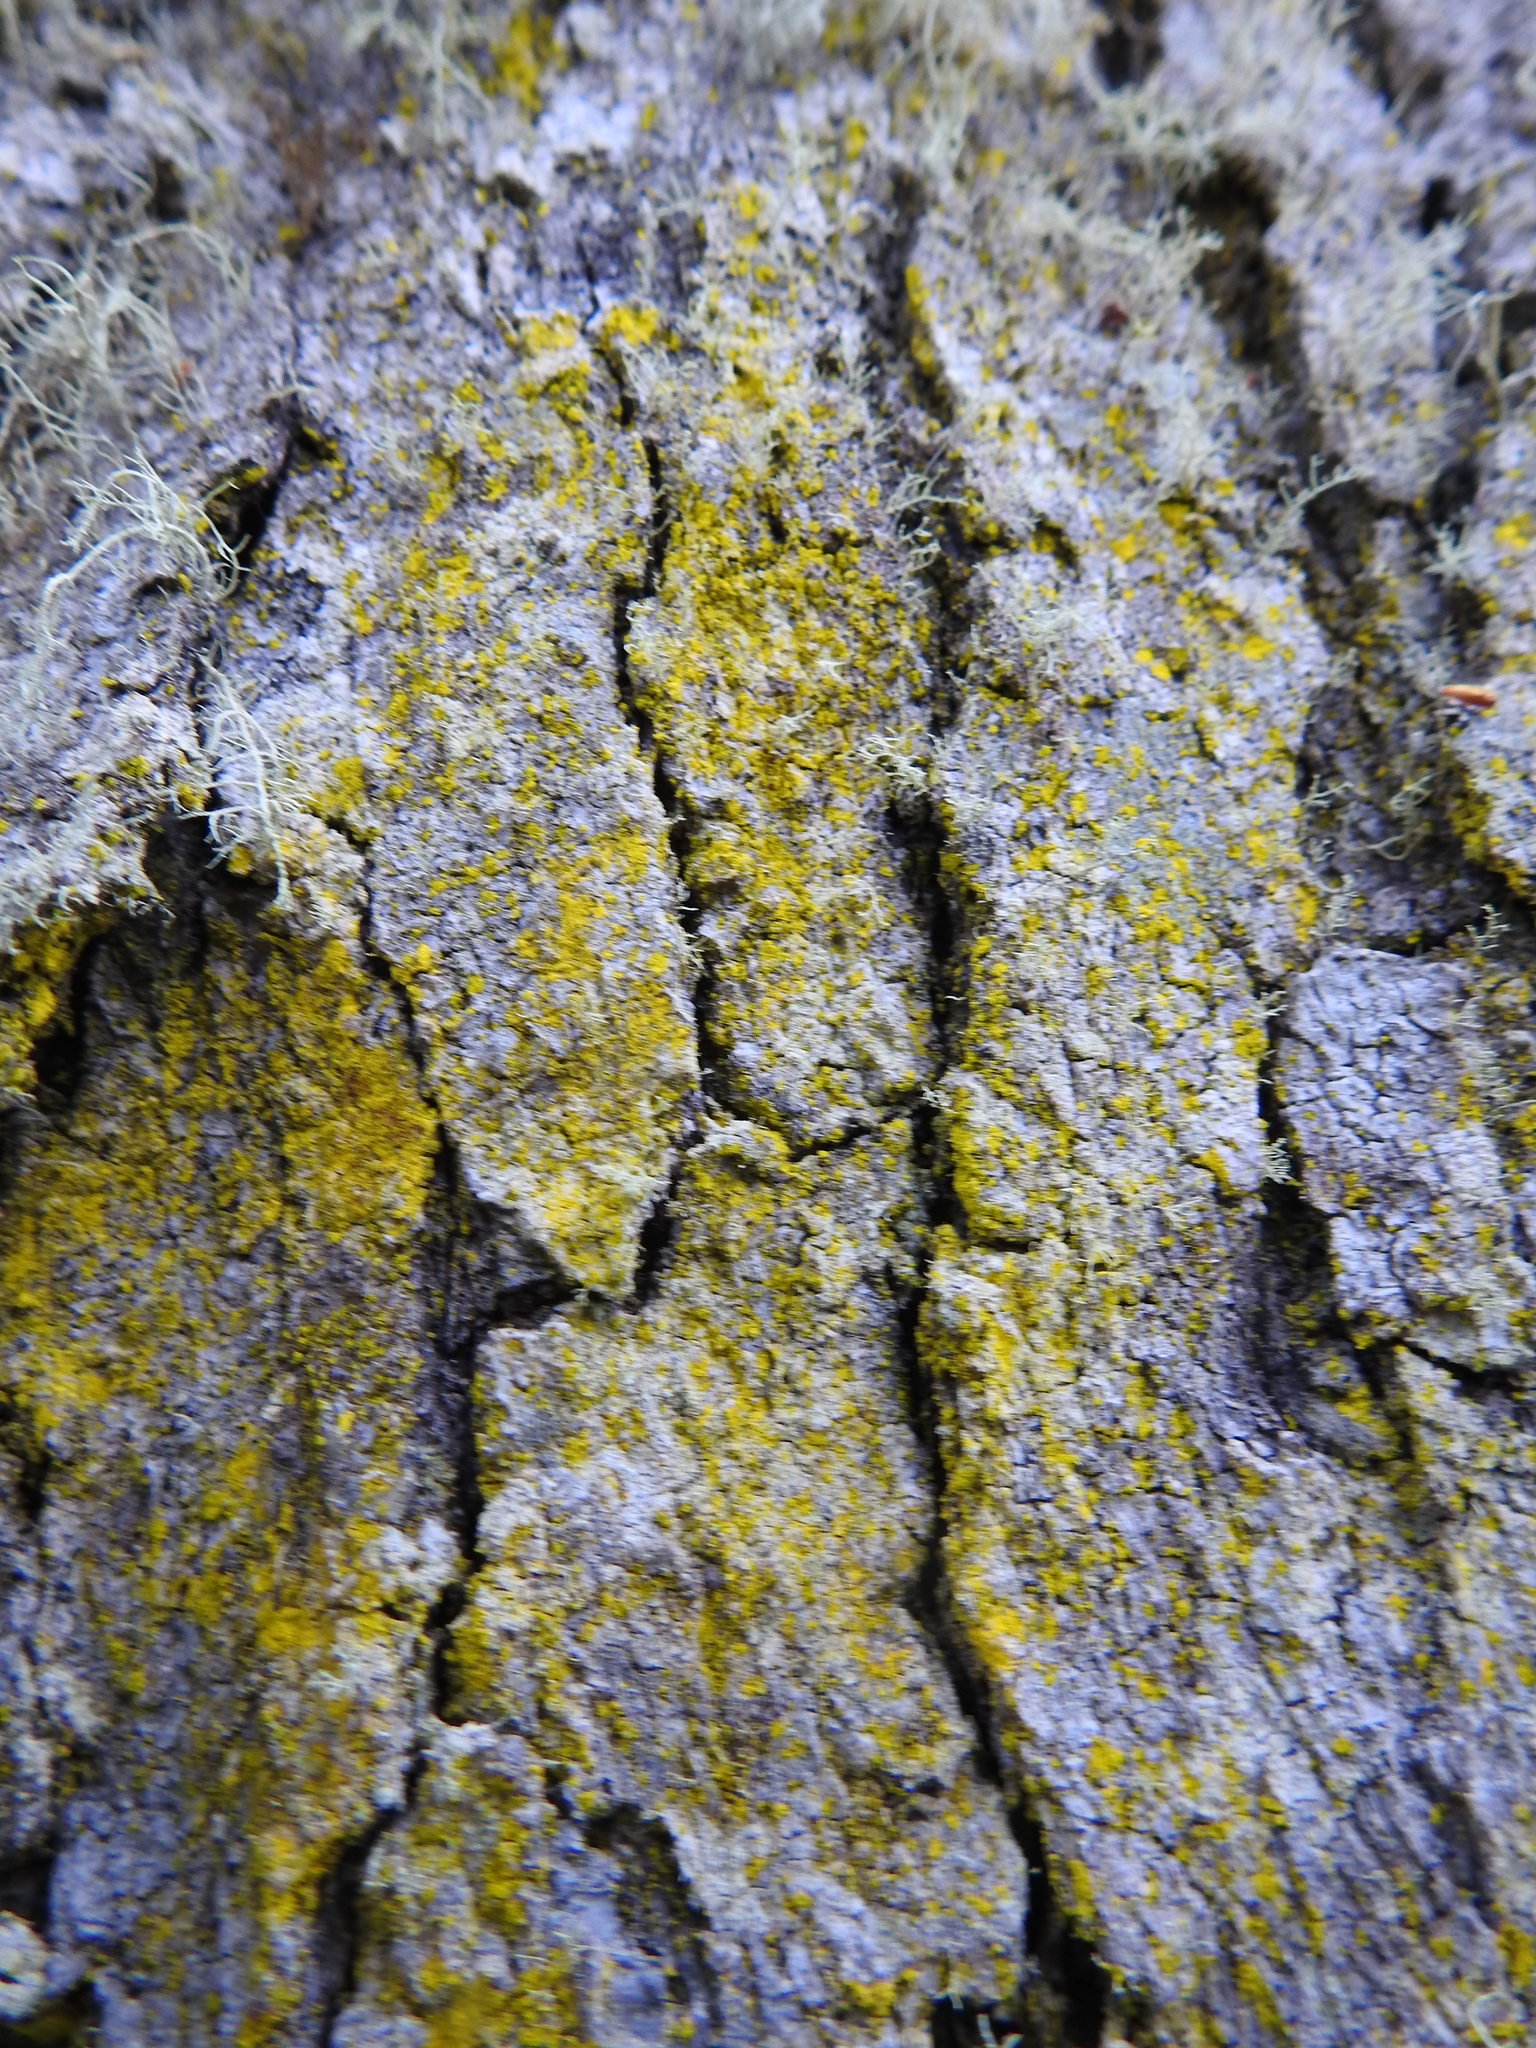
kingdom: Fungi
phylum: Ascomycota
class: Arthoniomycetes
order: Arthoniales
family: Chrysotrichaceae
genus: Chrysothrix
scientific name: Chrysothrix candelaris
